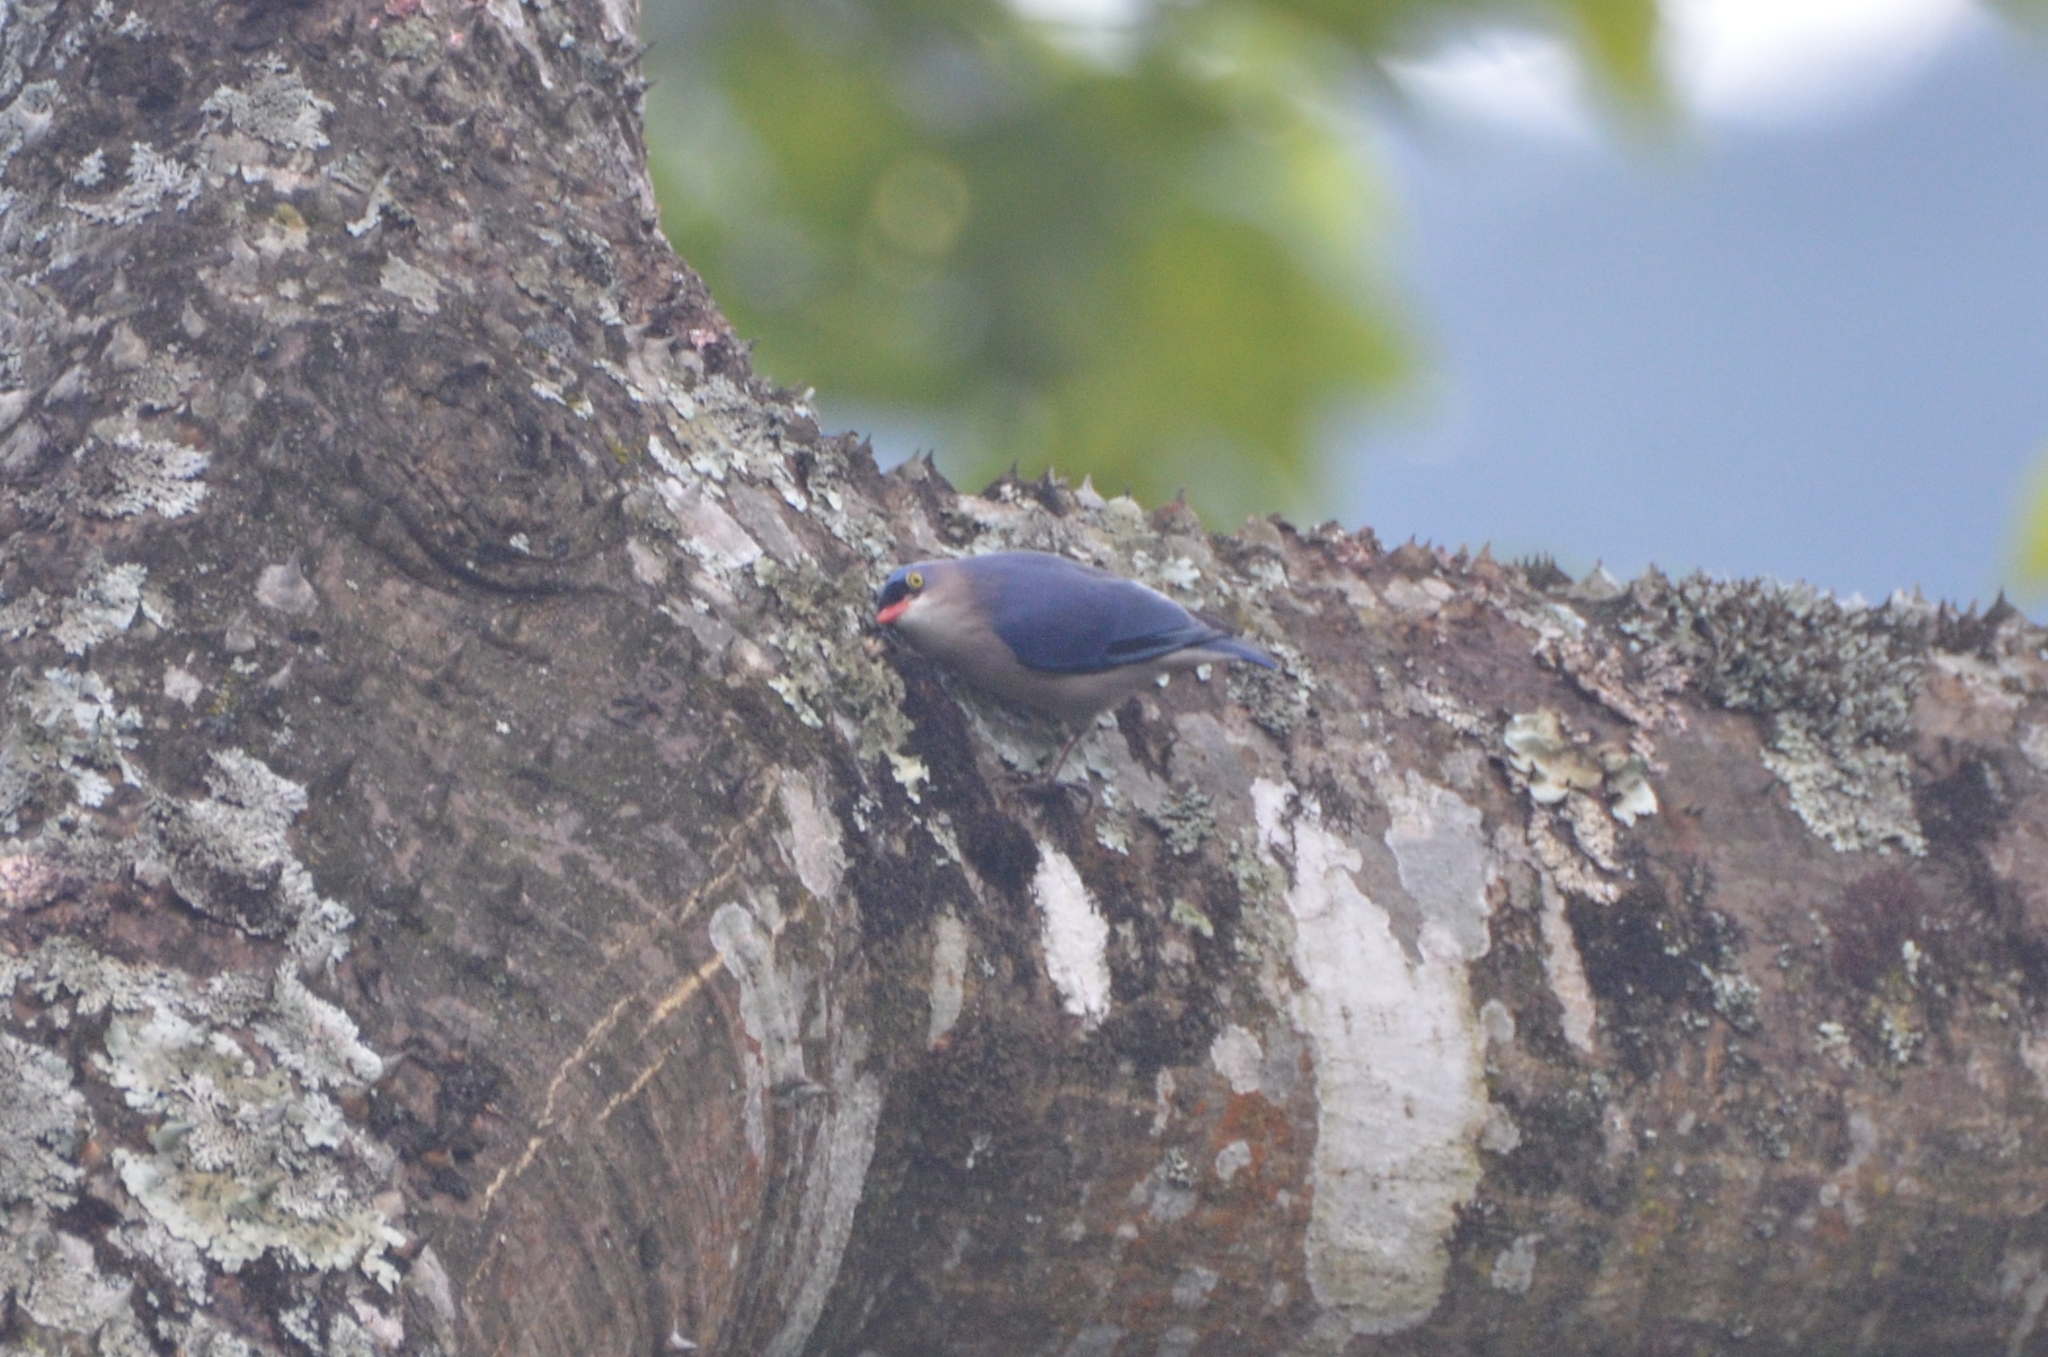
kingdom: Animalia
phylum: Chordata
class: Aves
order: Passeriformes
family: Sittidae
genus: Sitta
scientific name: Sitta frontalis
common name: Velvet-fronted nuthatch
